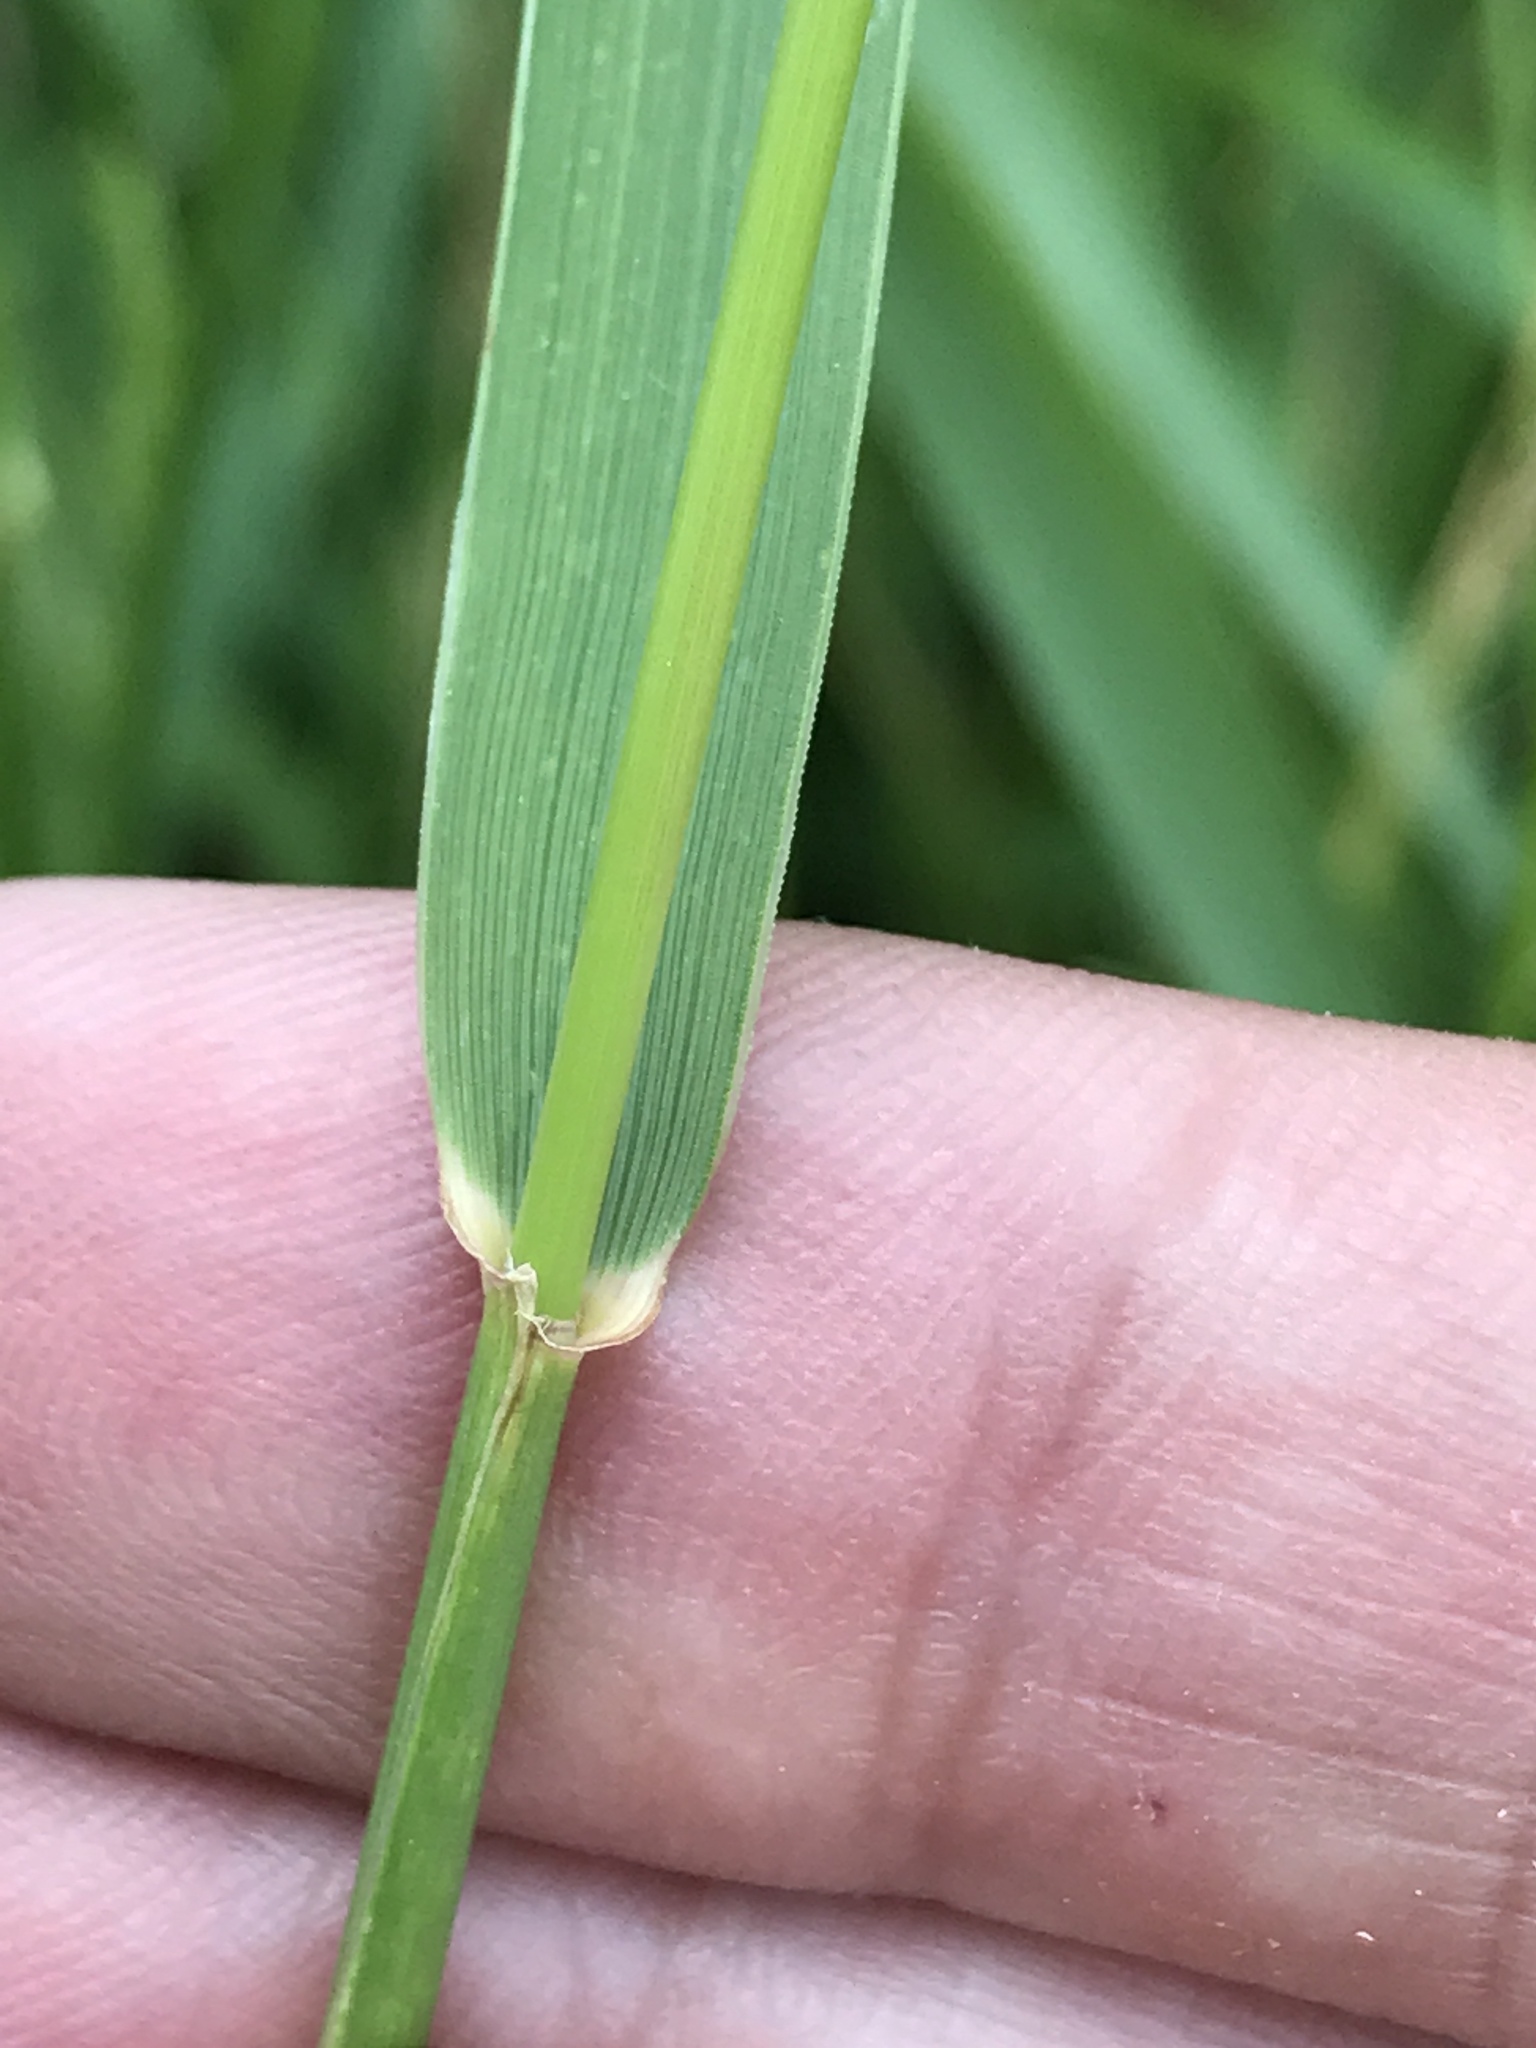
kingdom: Plantae
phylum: Tracheophyta
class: Liliopsida
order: Poales
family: Poaceae
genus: Elymus
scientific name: Elymus repens
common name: Quackgrass
